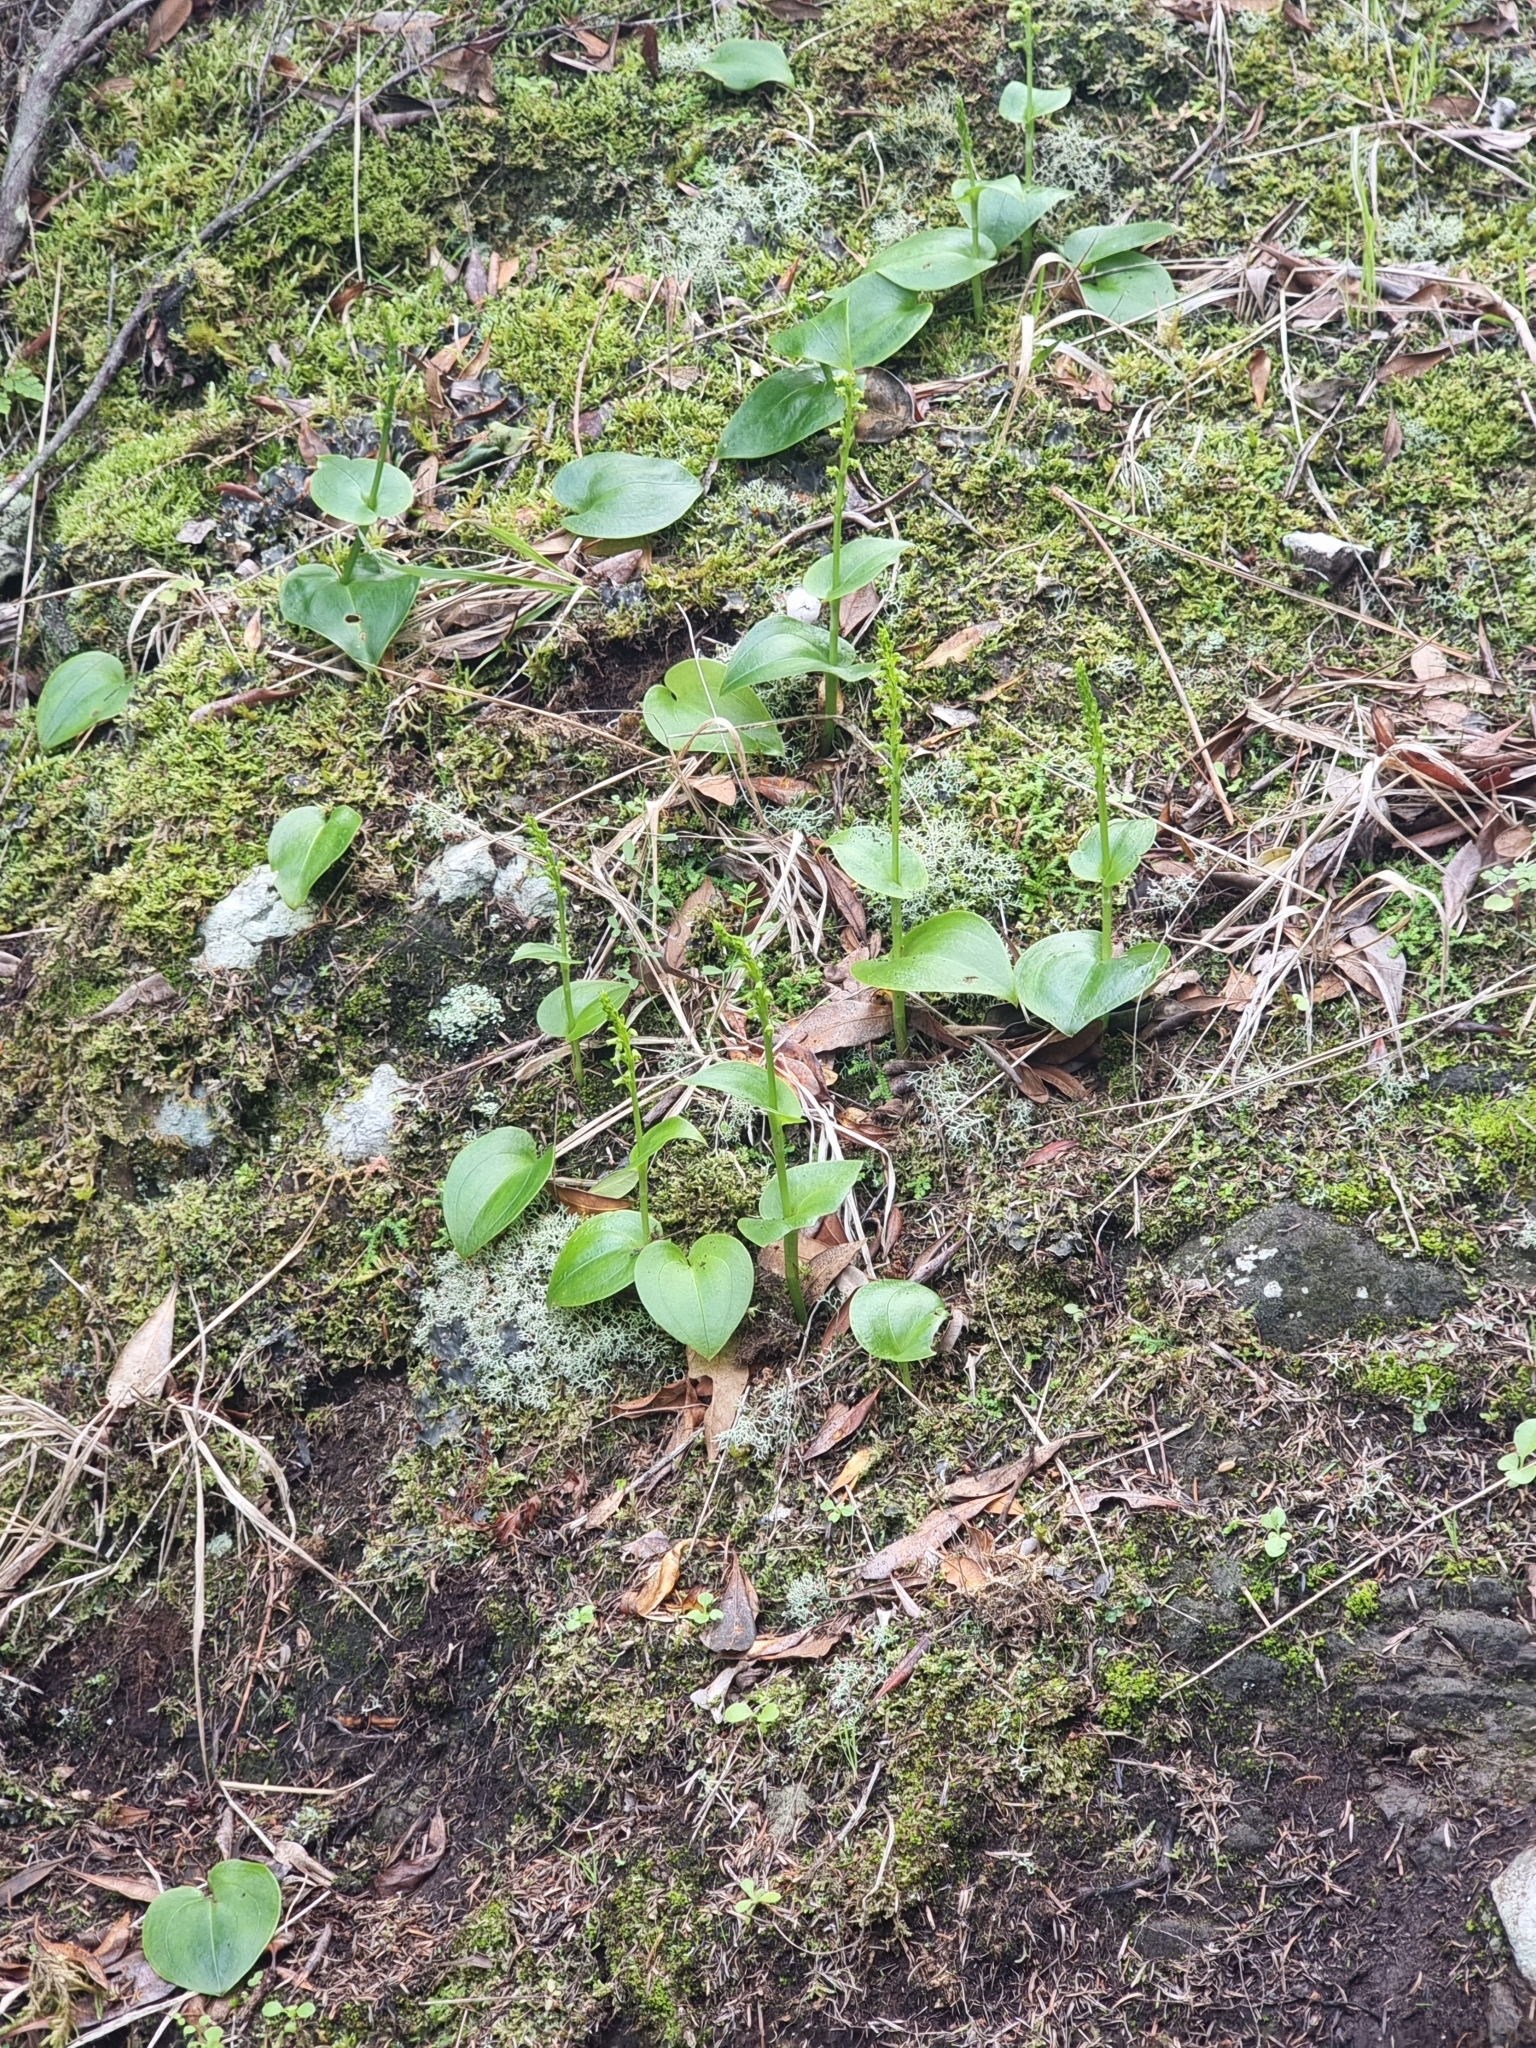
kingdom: Plantae
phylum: Tracheophyta
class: Liliopsida
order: Asparagales
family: Orchidaceae
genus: Gennaria
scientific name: Gennaria diphylla
